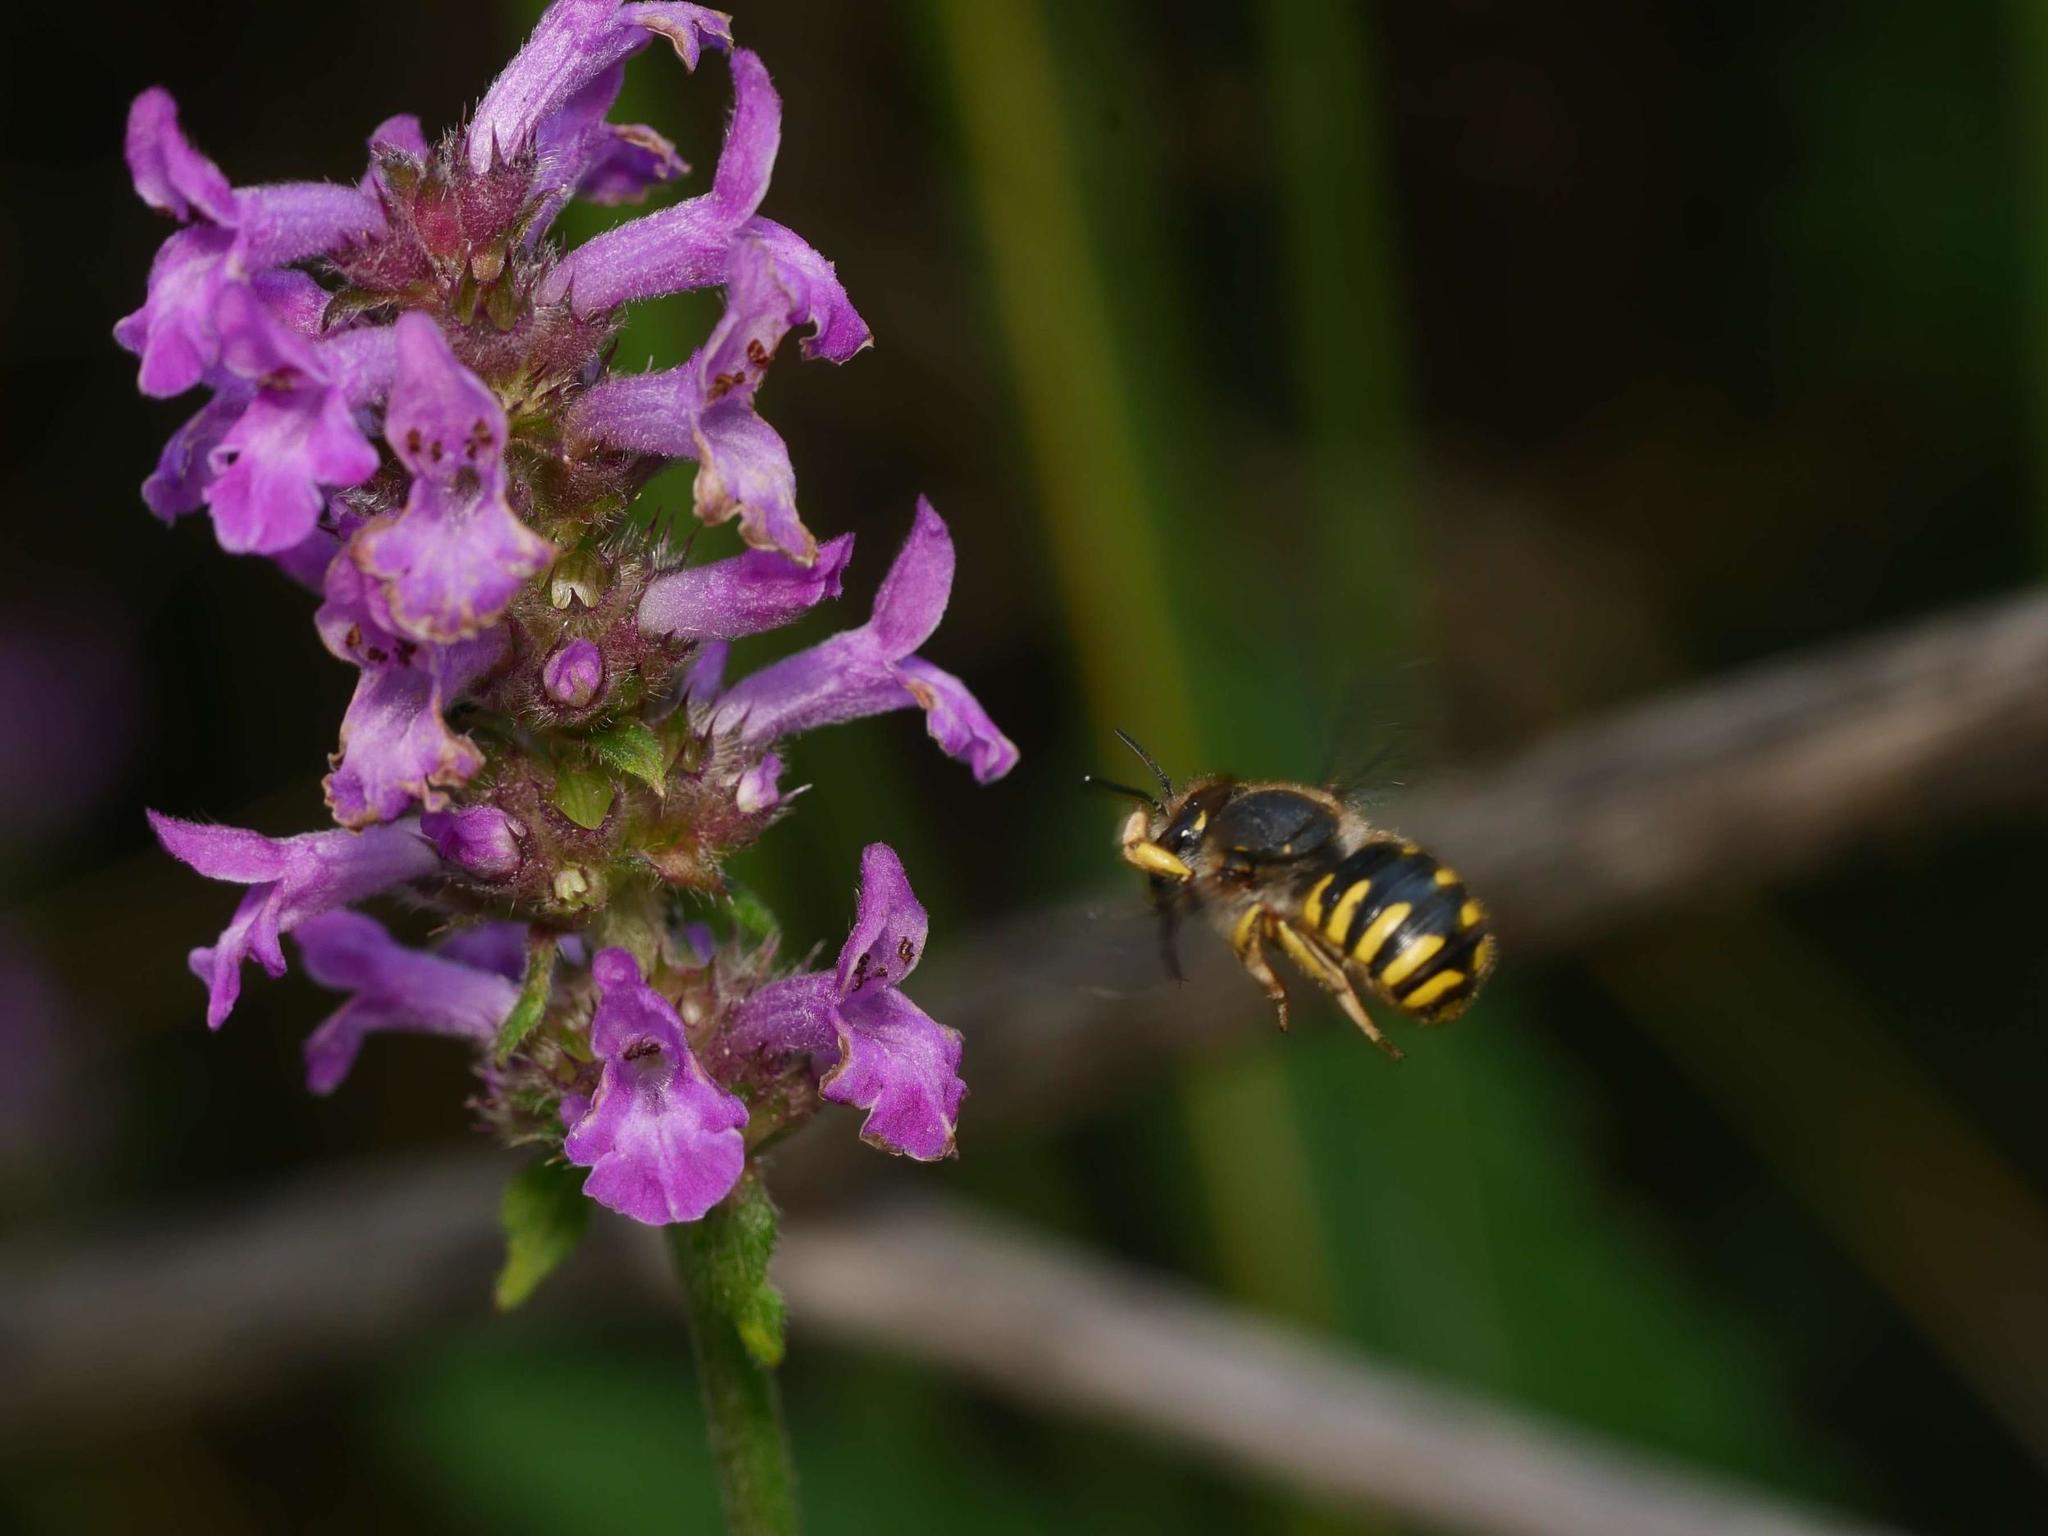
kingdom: Animalia
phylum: Arthropoda
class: Insecta
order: Hymenoptera
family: Megachilidae
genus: Anthidium
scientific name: Anthidium manicatum
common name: Wool carder bee
